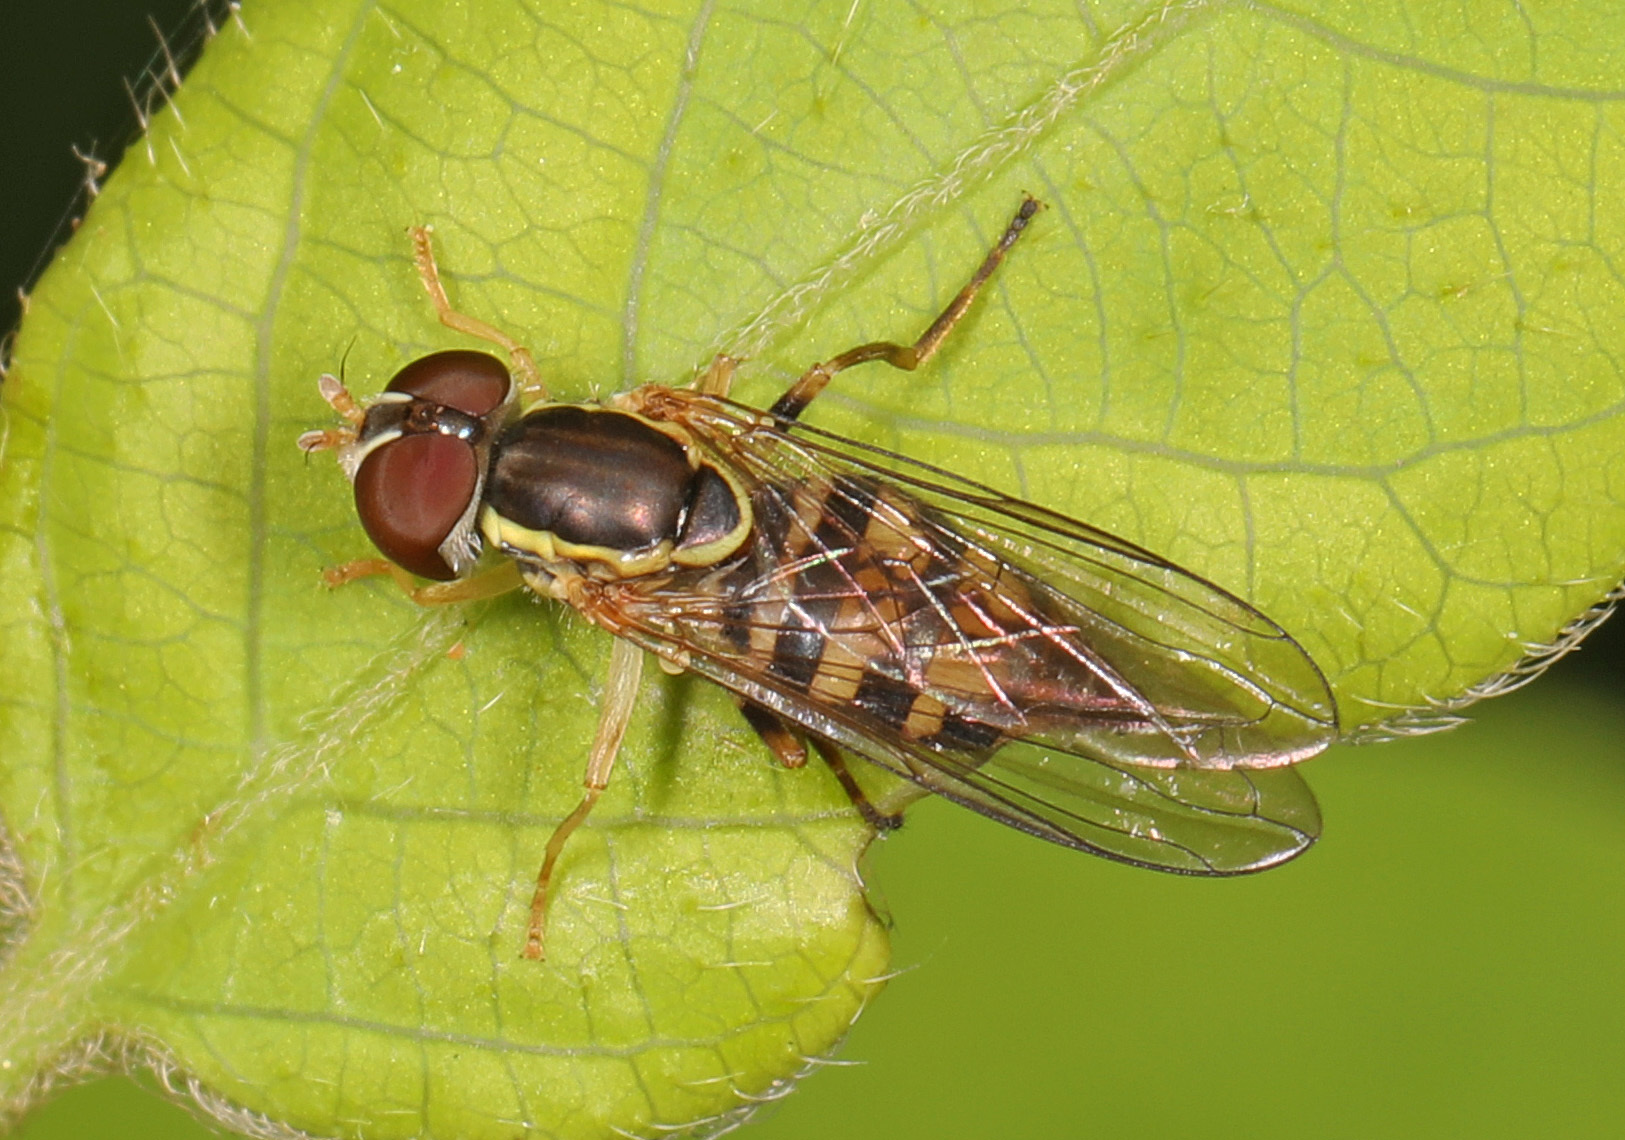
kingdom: Animalia
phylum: Arthropoda
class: Insecta
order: Diptera
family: Syrphidae
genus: Toxomerus
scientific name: Toxomerus geminatus
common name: Eastern calligrapher
